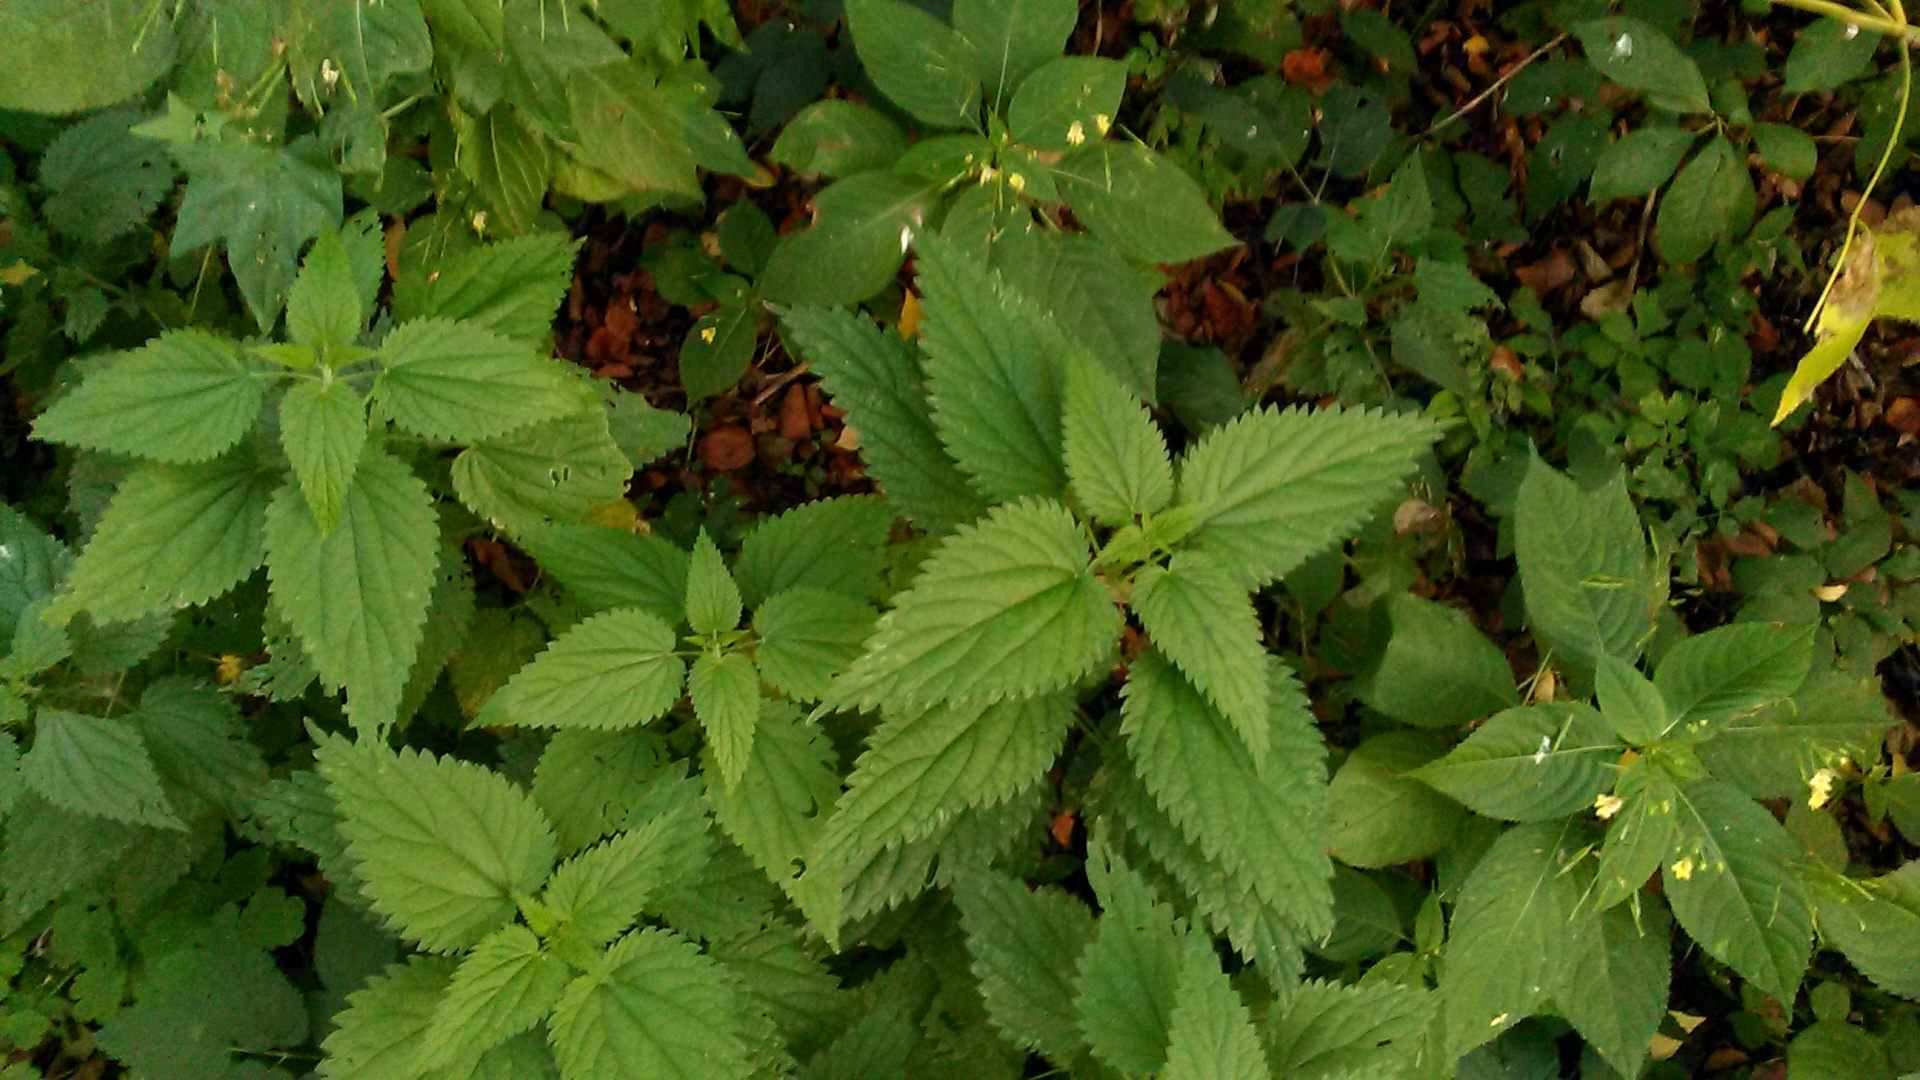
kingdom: Plantae
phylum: Tracheophyta
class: Magnoliopsida
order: Rosales
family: Urticaceae
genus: Urtica
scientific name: Urtica dioica
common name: Common nettle
